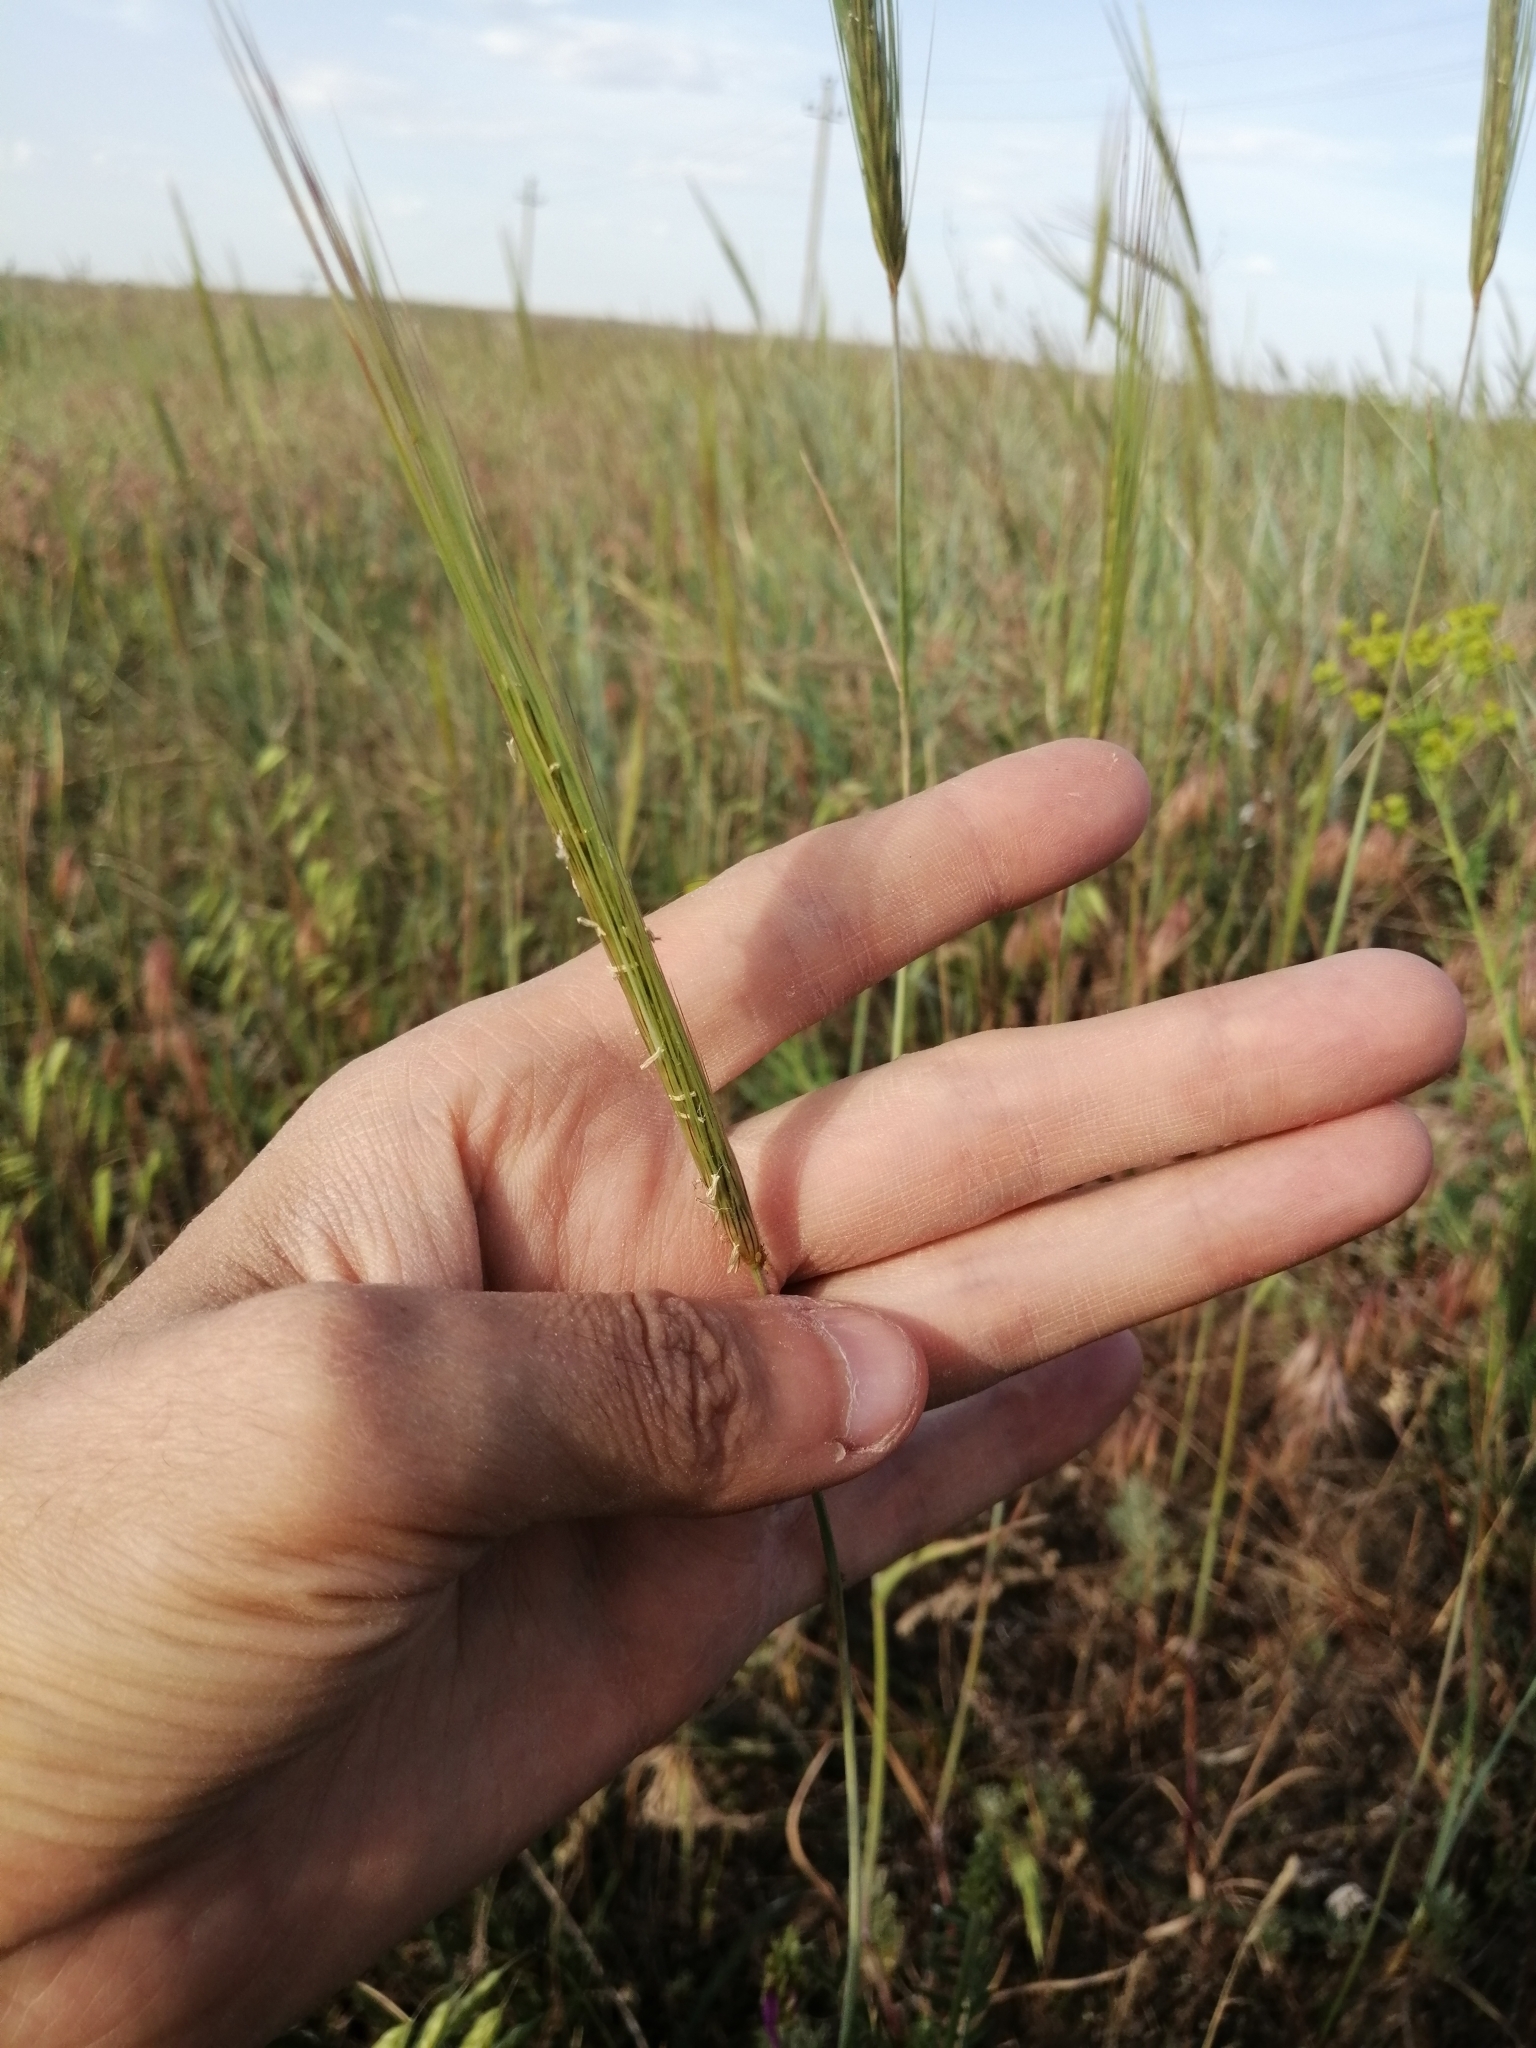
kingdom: Plantae
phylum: Tracheophyta
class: Liliopsida
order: Poales
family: Poaceae
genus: Secale
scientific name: Secale sylvestre
